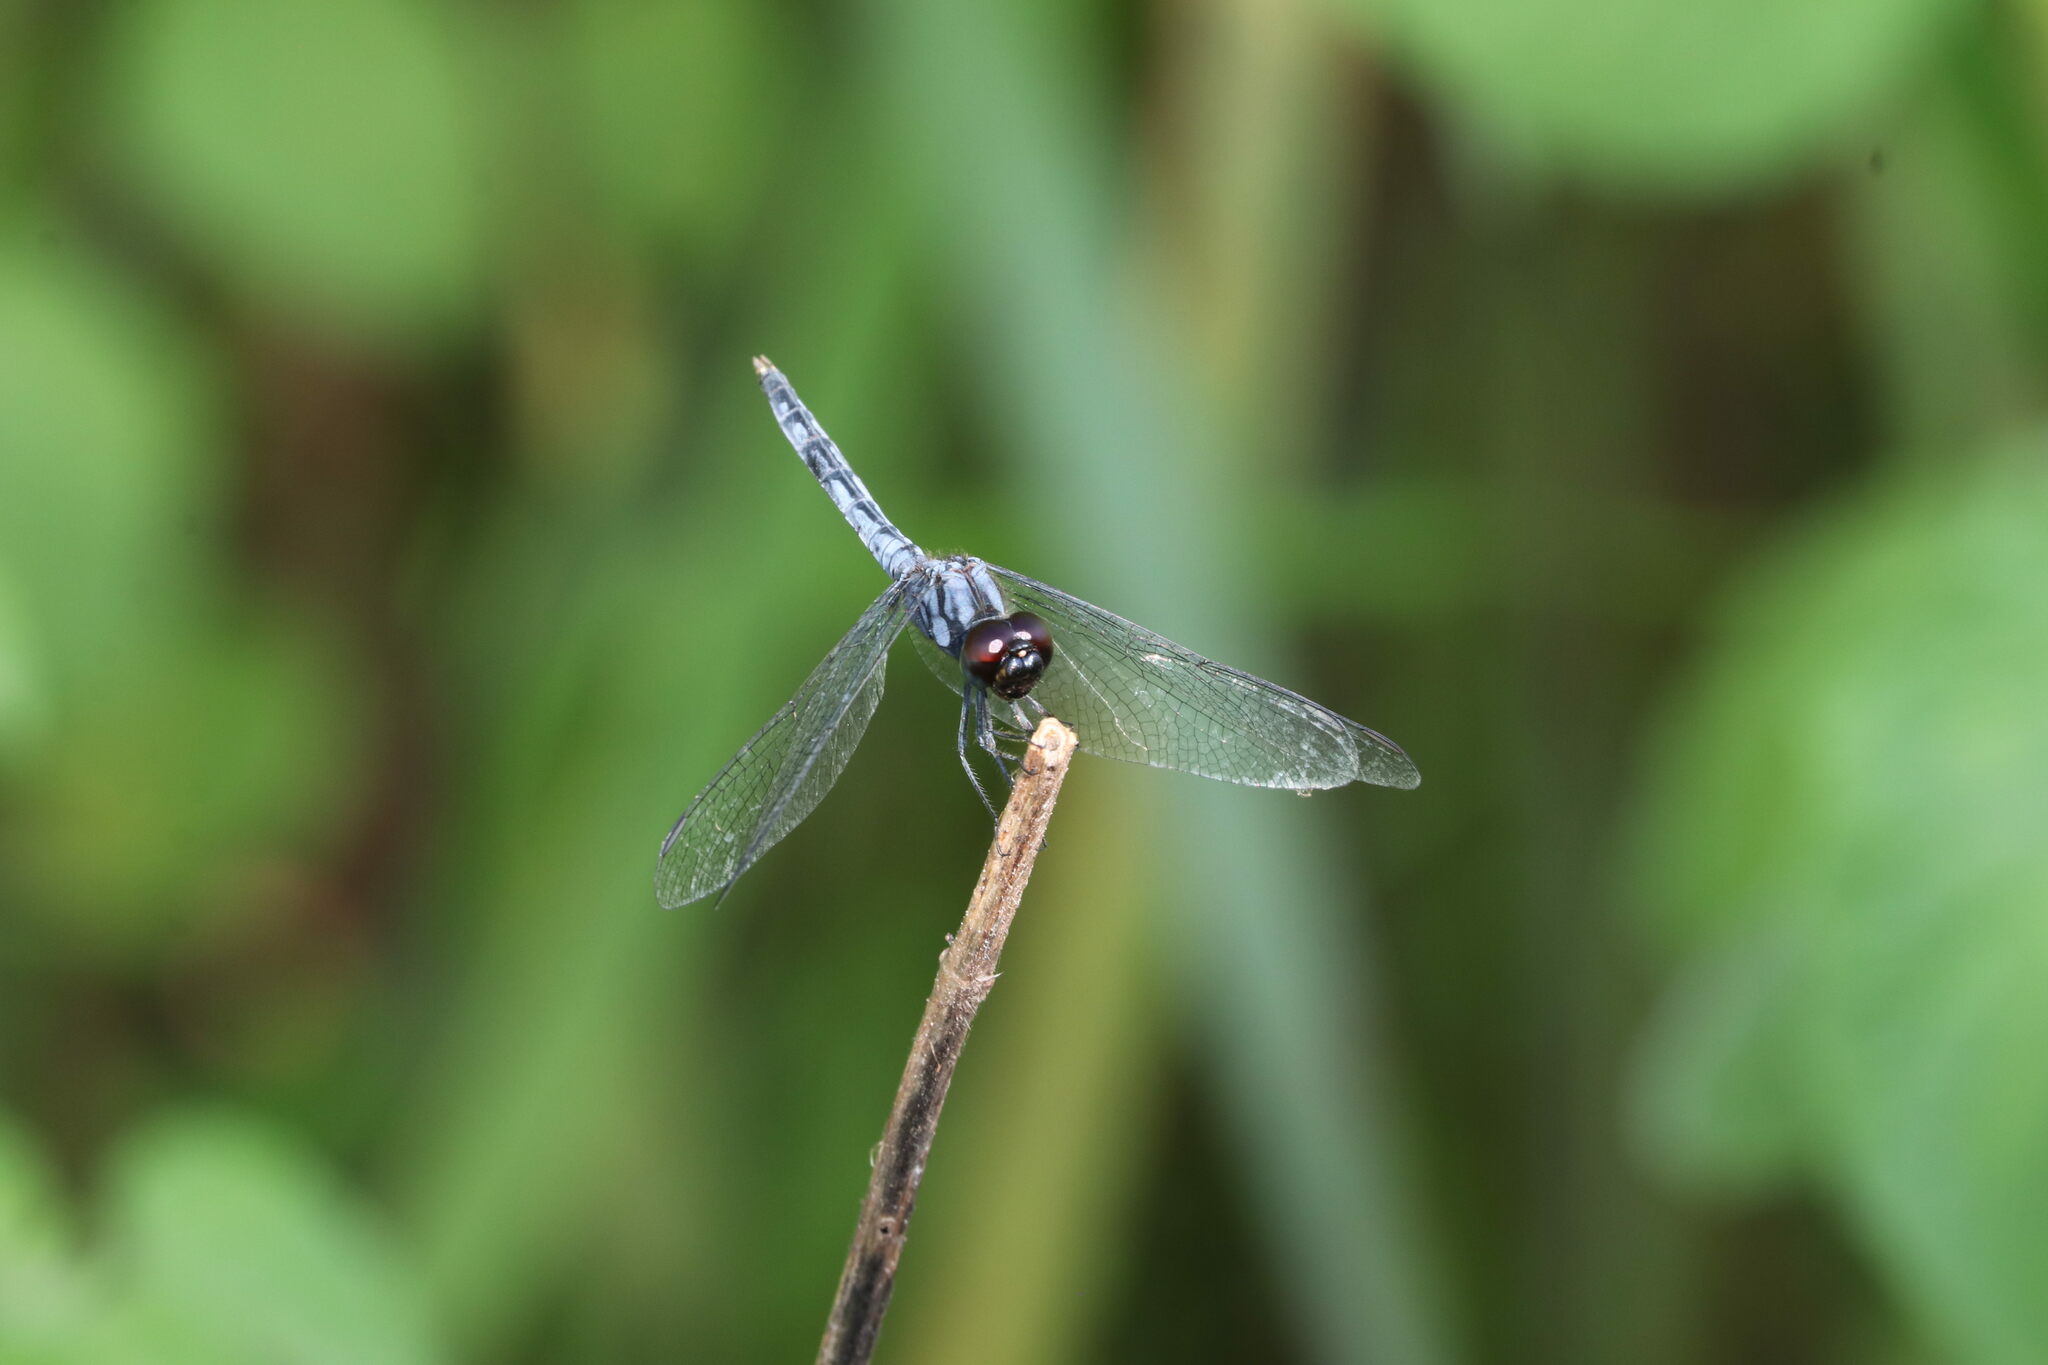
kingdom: Animalia
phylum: Arthropoda
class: Insecta
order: Odonata
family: Libellulidae
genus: Indothemis
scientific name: Indothemis carnatica
